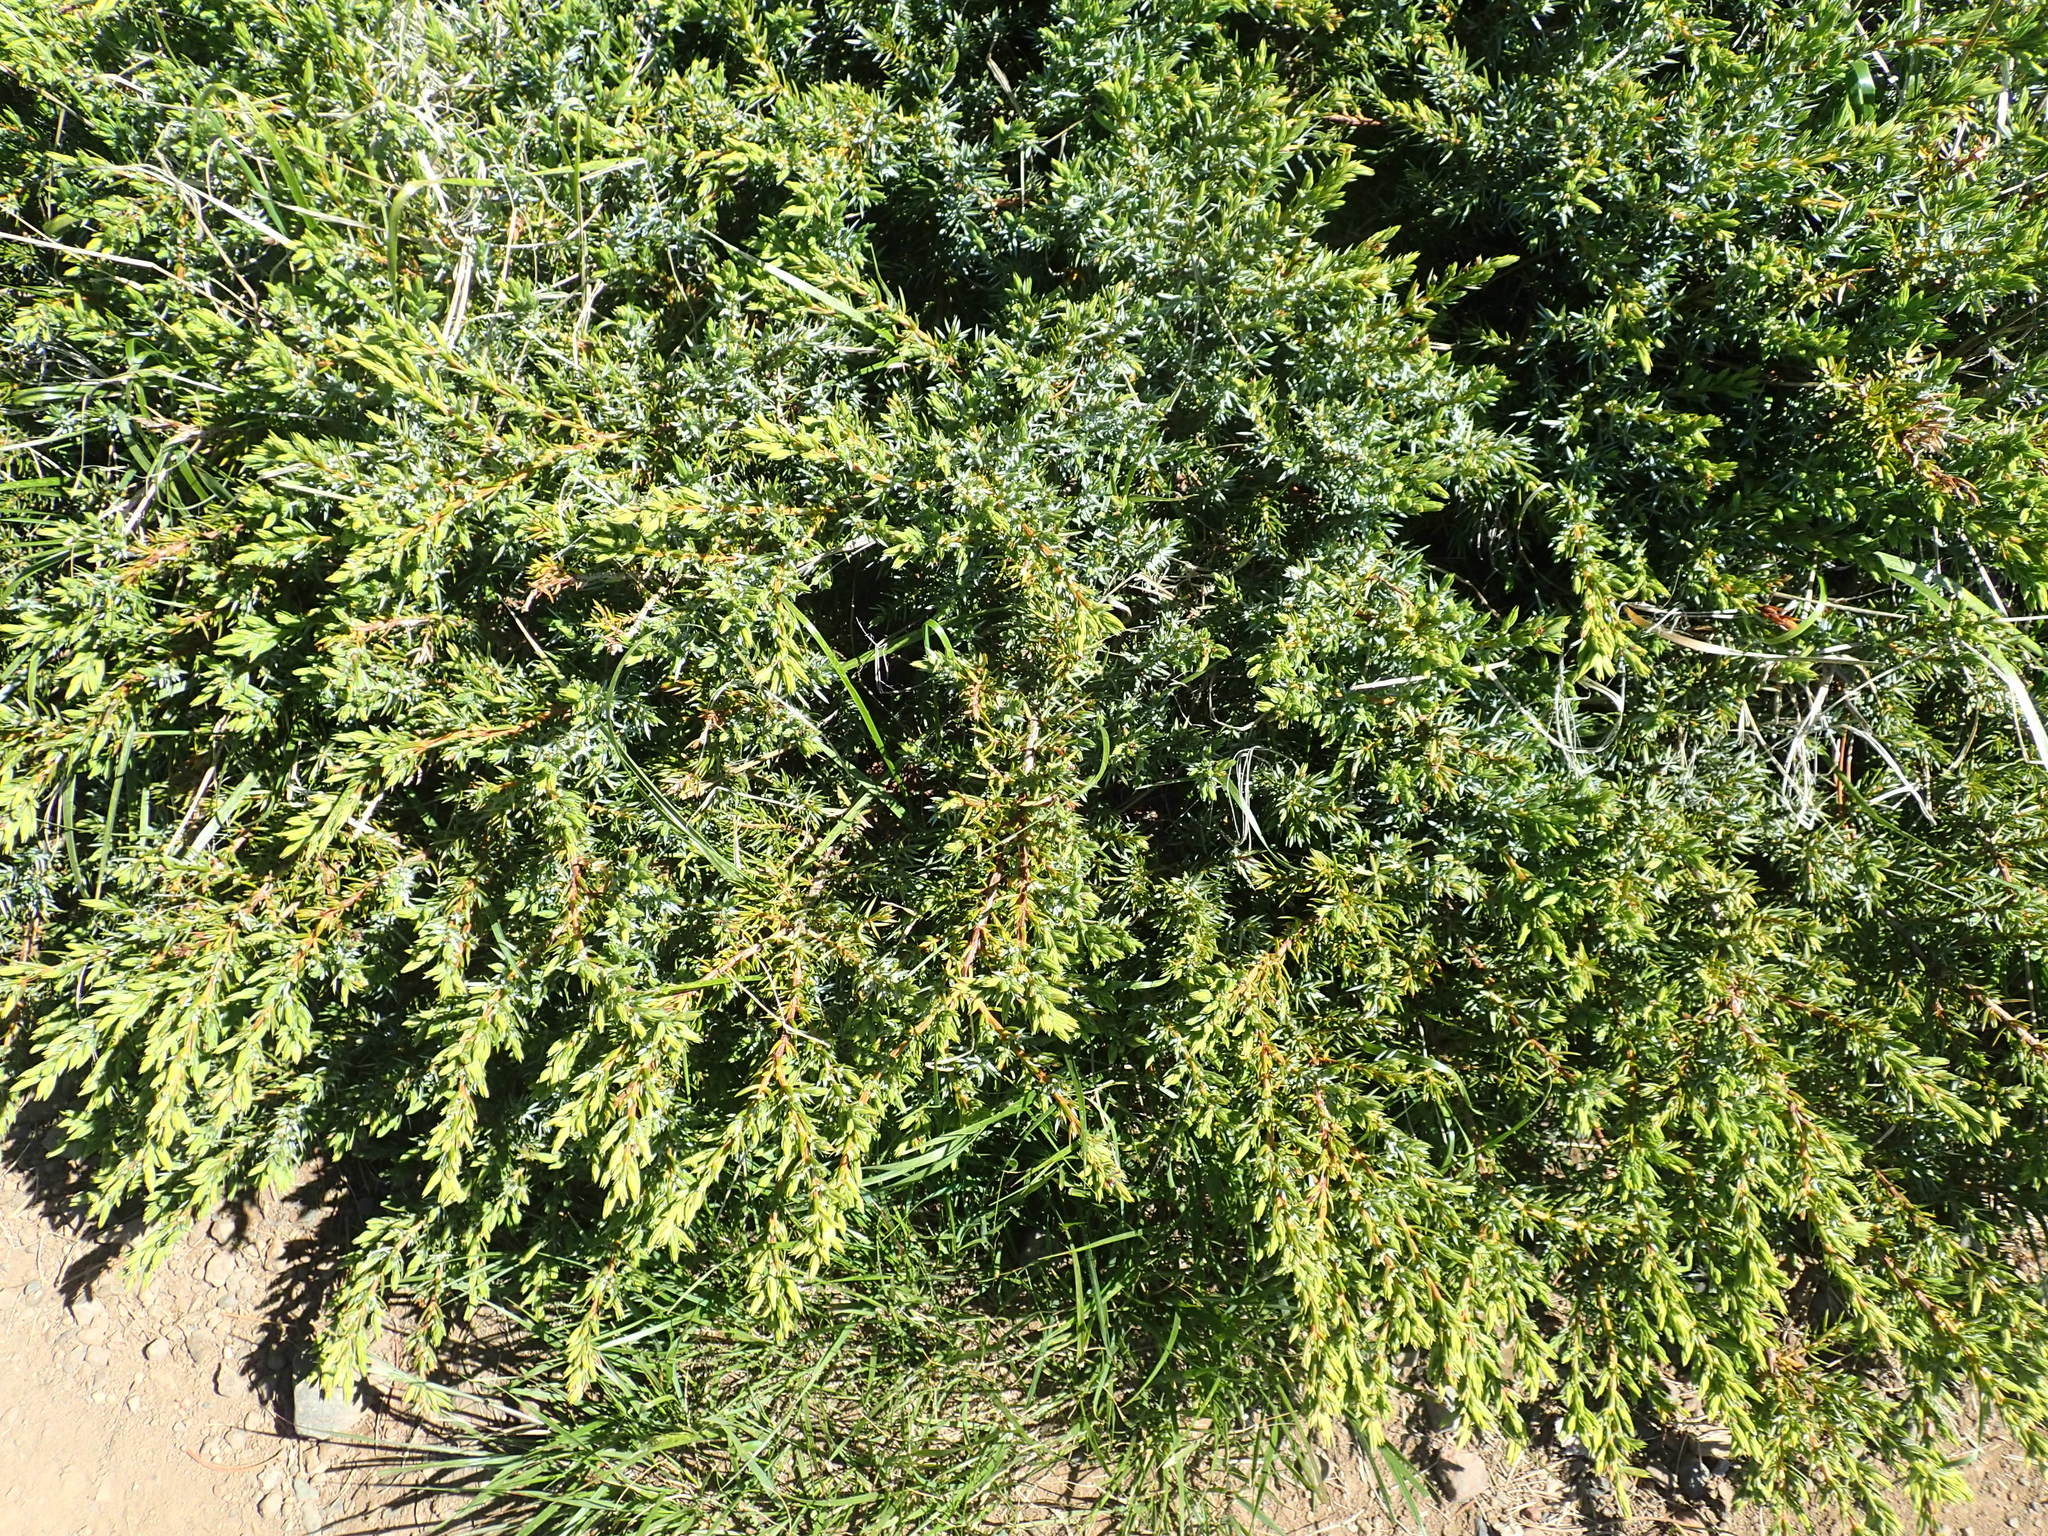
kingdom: Plantae
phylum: Tracheophyta
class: Pinopsida
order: Pinales
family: Cupressaceae
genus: Juniperus
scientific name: Juniperus communis
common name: Common juniper
